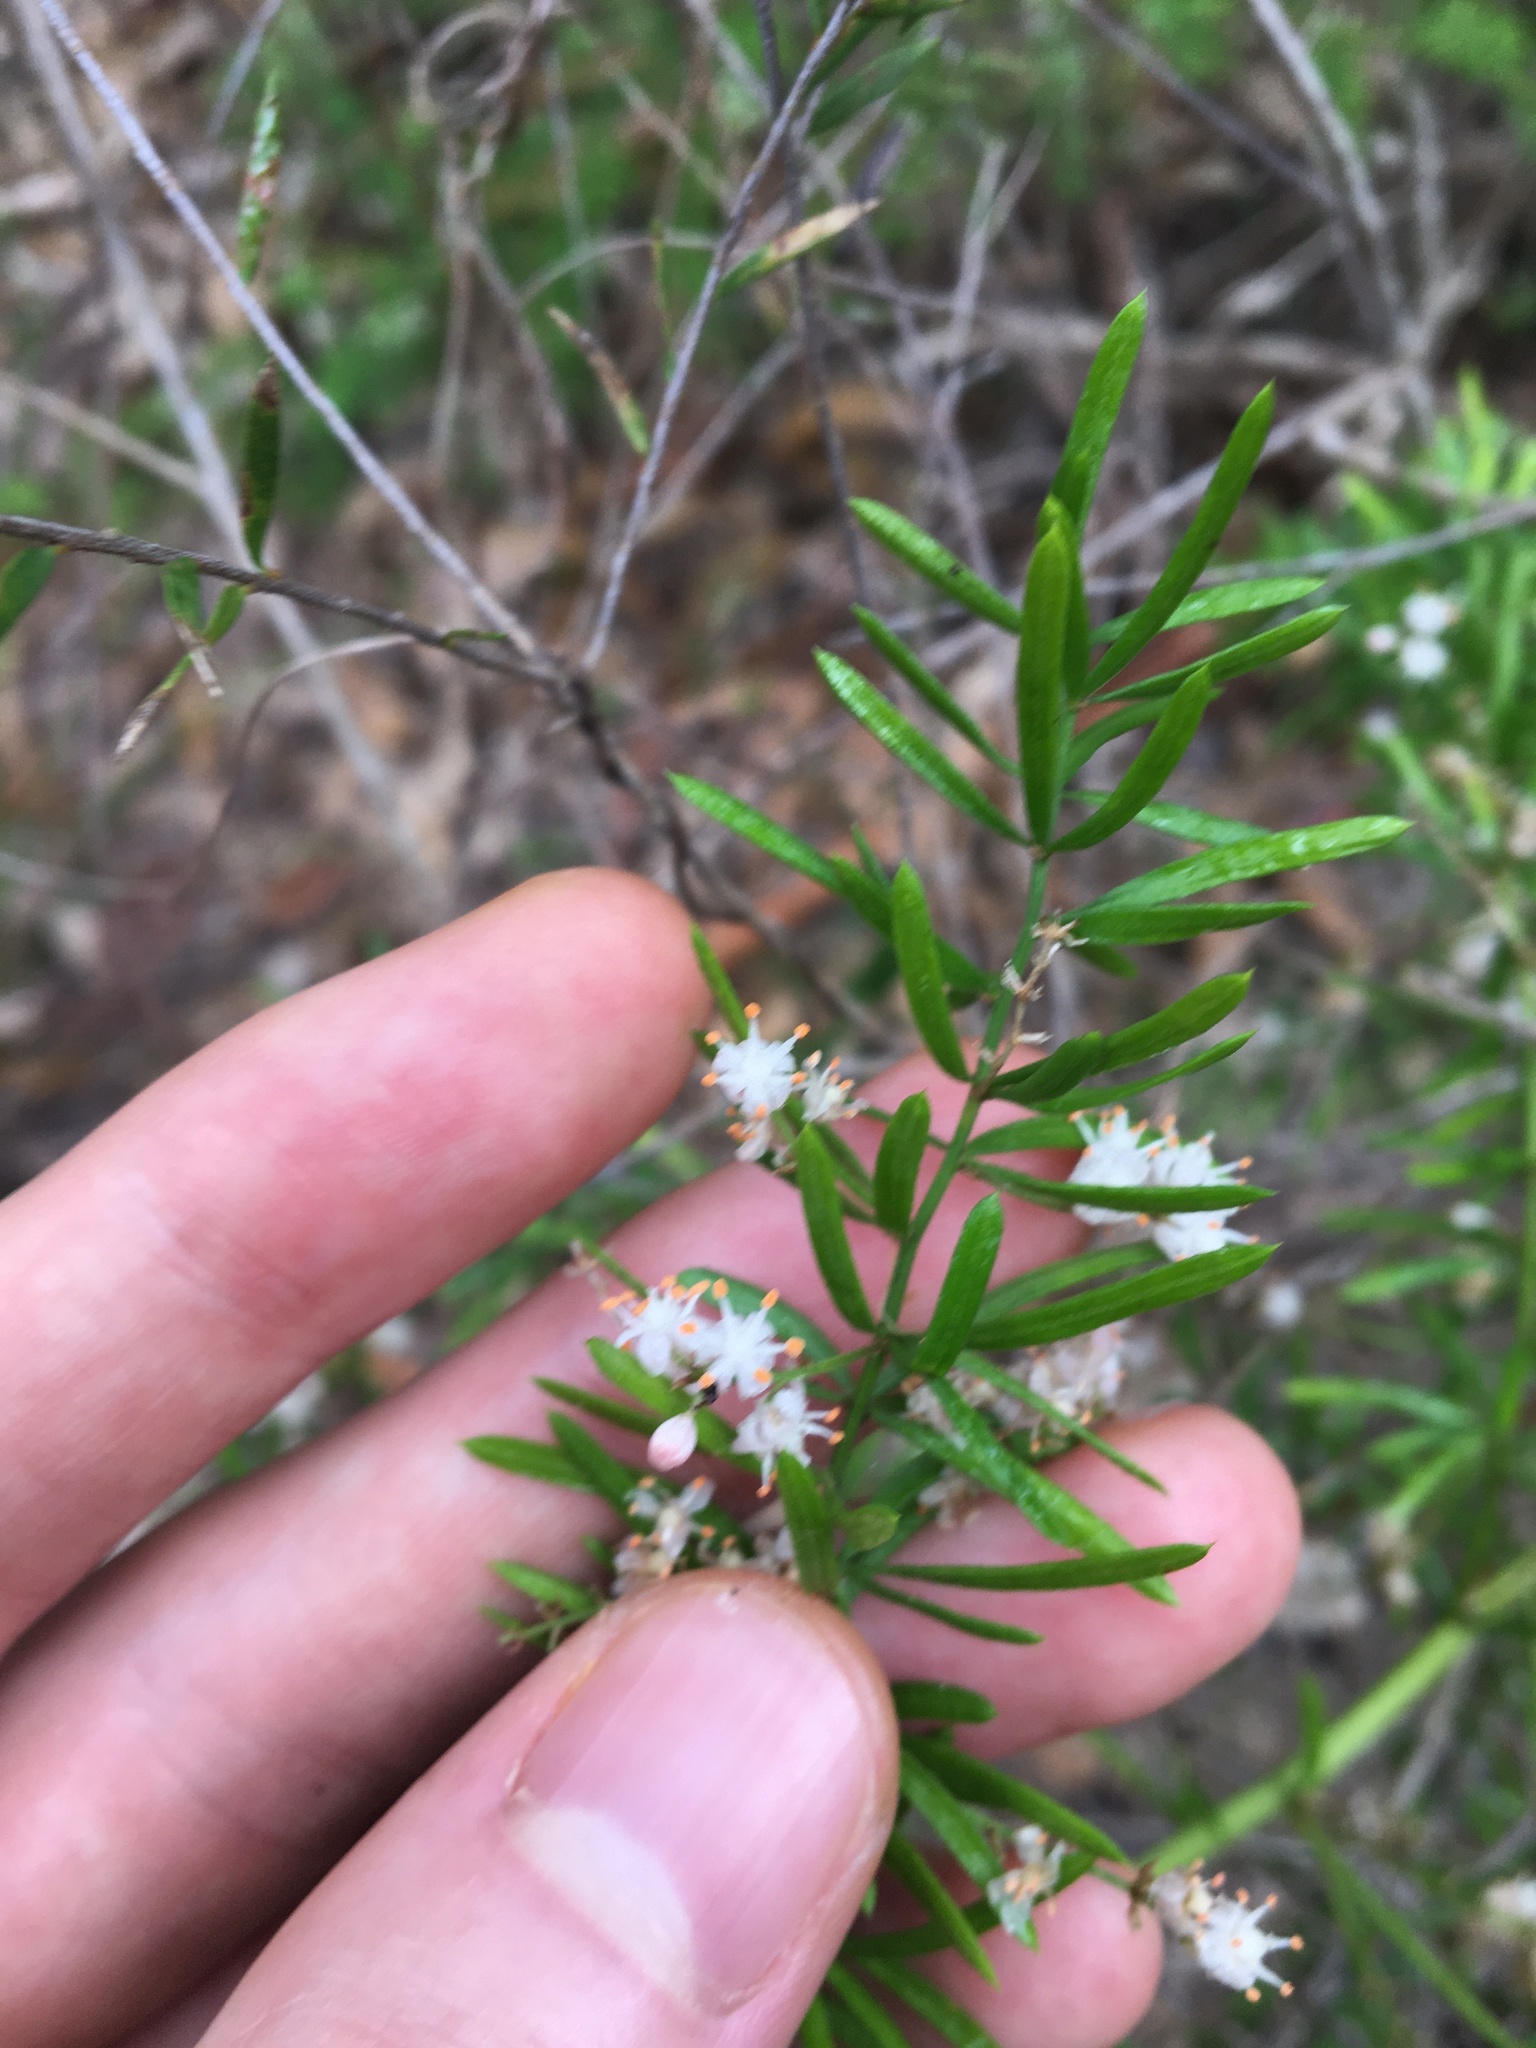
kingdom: Plantae
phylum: Tracheophyta
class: Liliopsida
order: Asparagales
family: Asparagaceae
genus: Asparagus
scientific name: Asparagus aethiopicus
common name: Sprenger's asparagus fern
